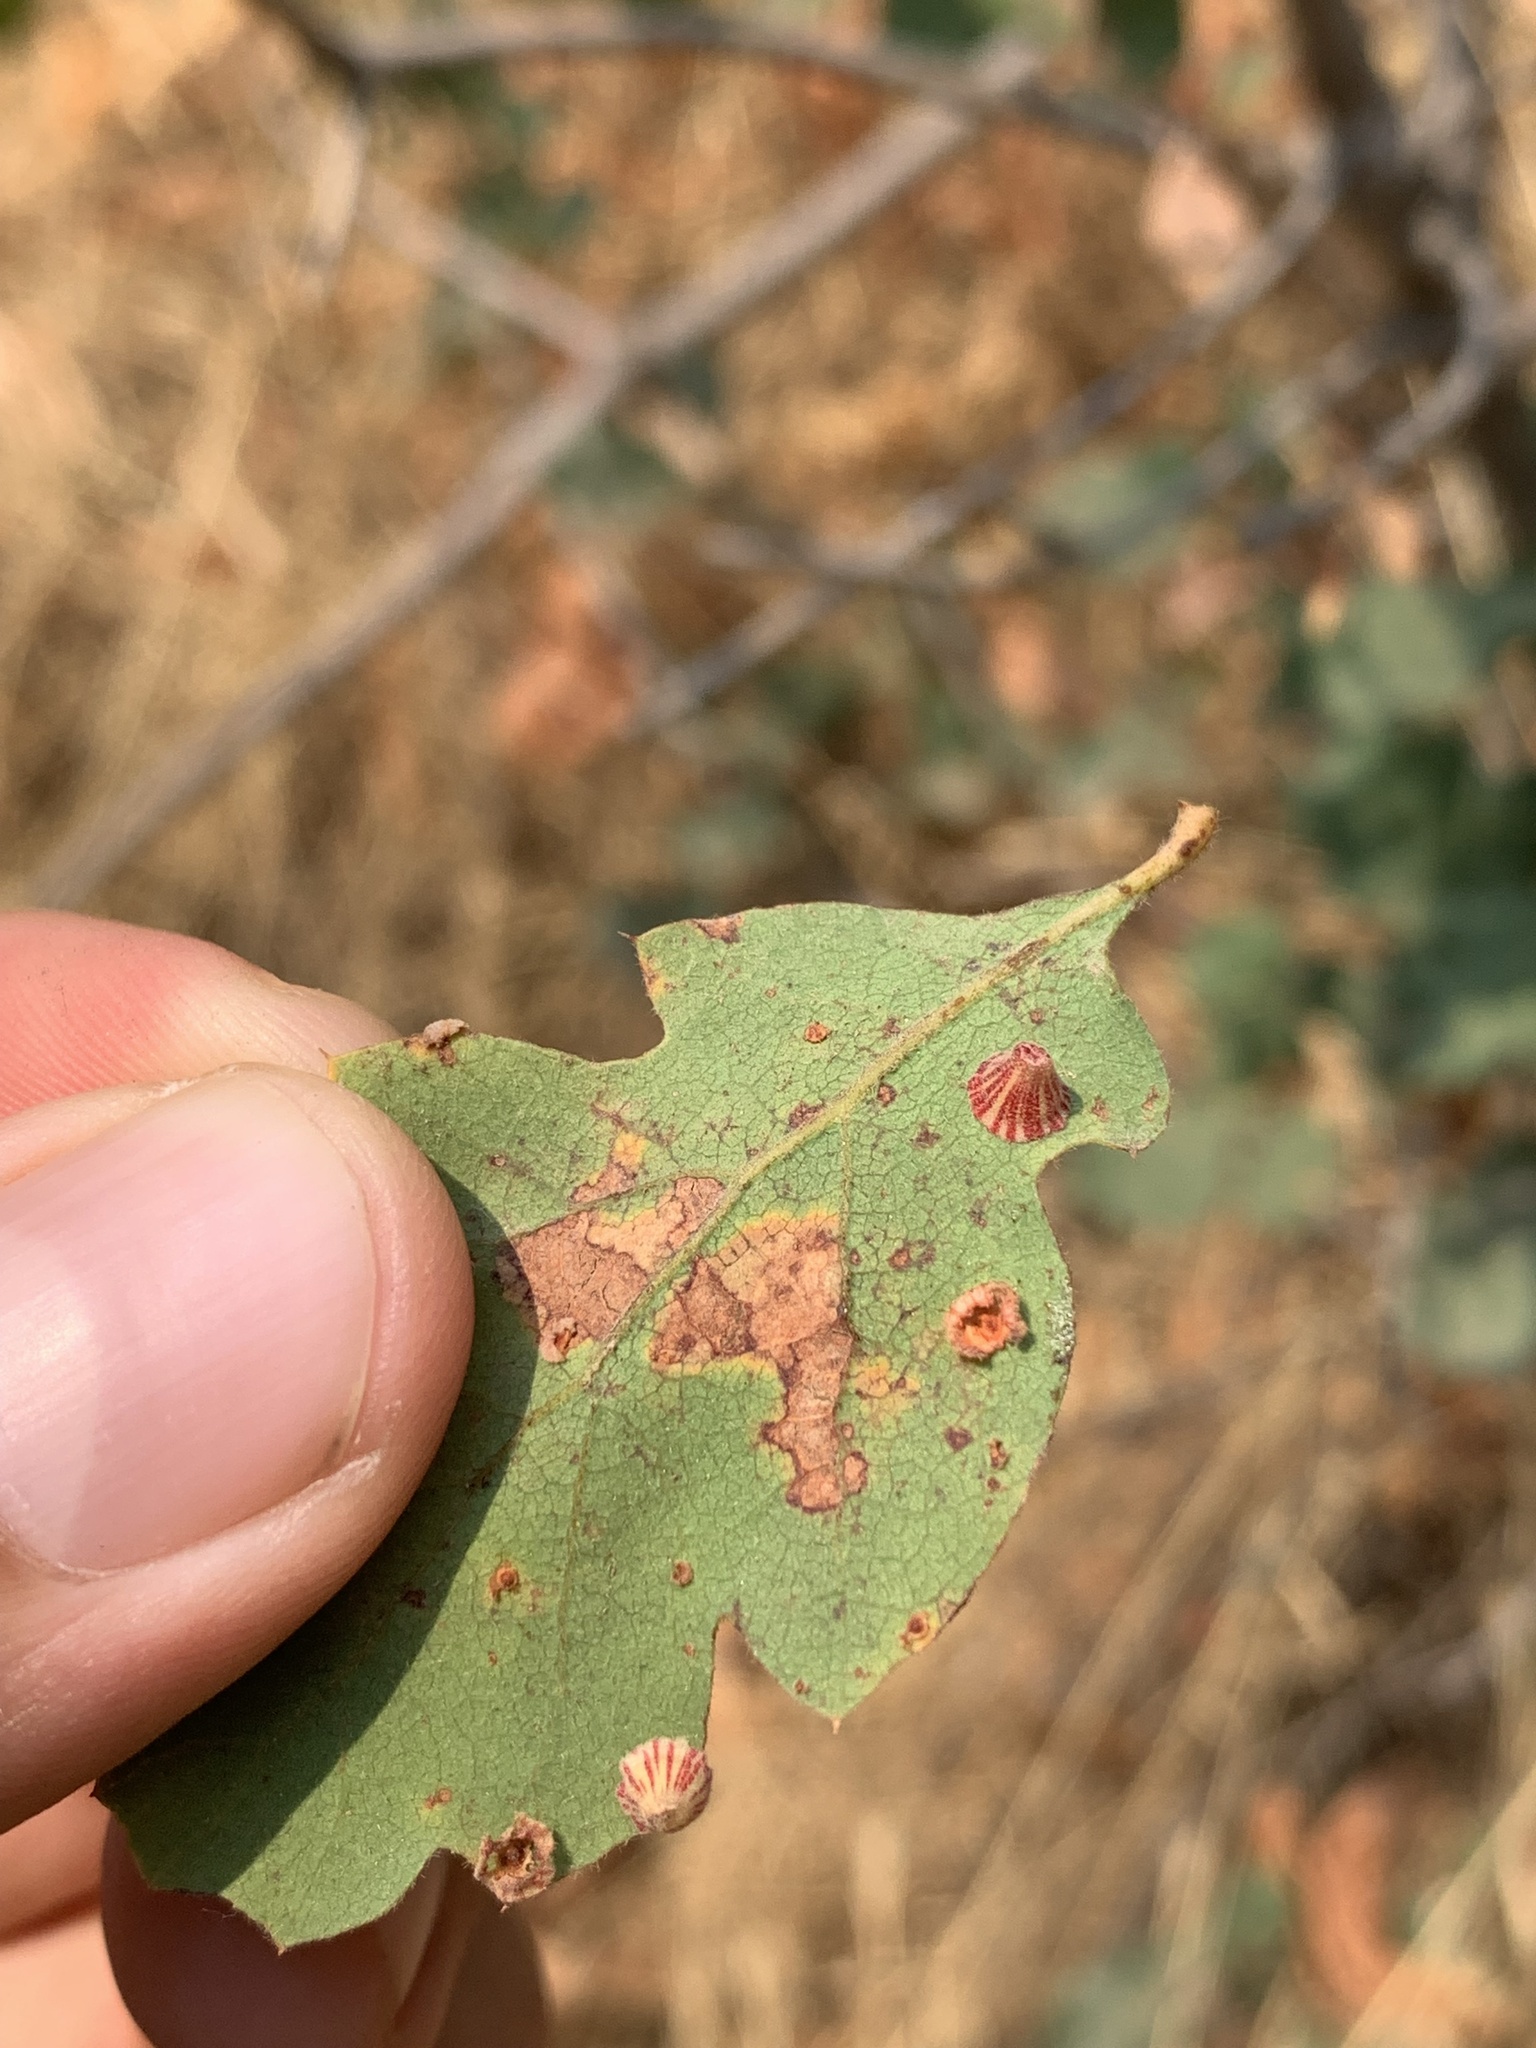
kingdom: Animalia
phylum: Arthropoda
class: Insecta
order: Hymenoptera
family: Cynipidae
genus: Andricus
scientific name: Andricus
